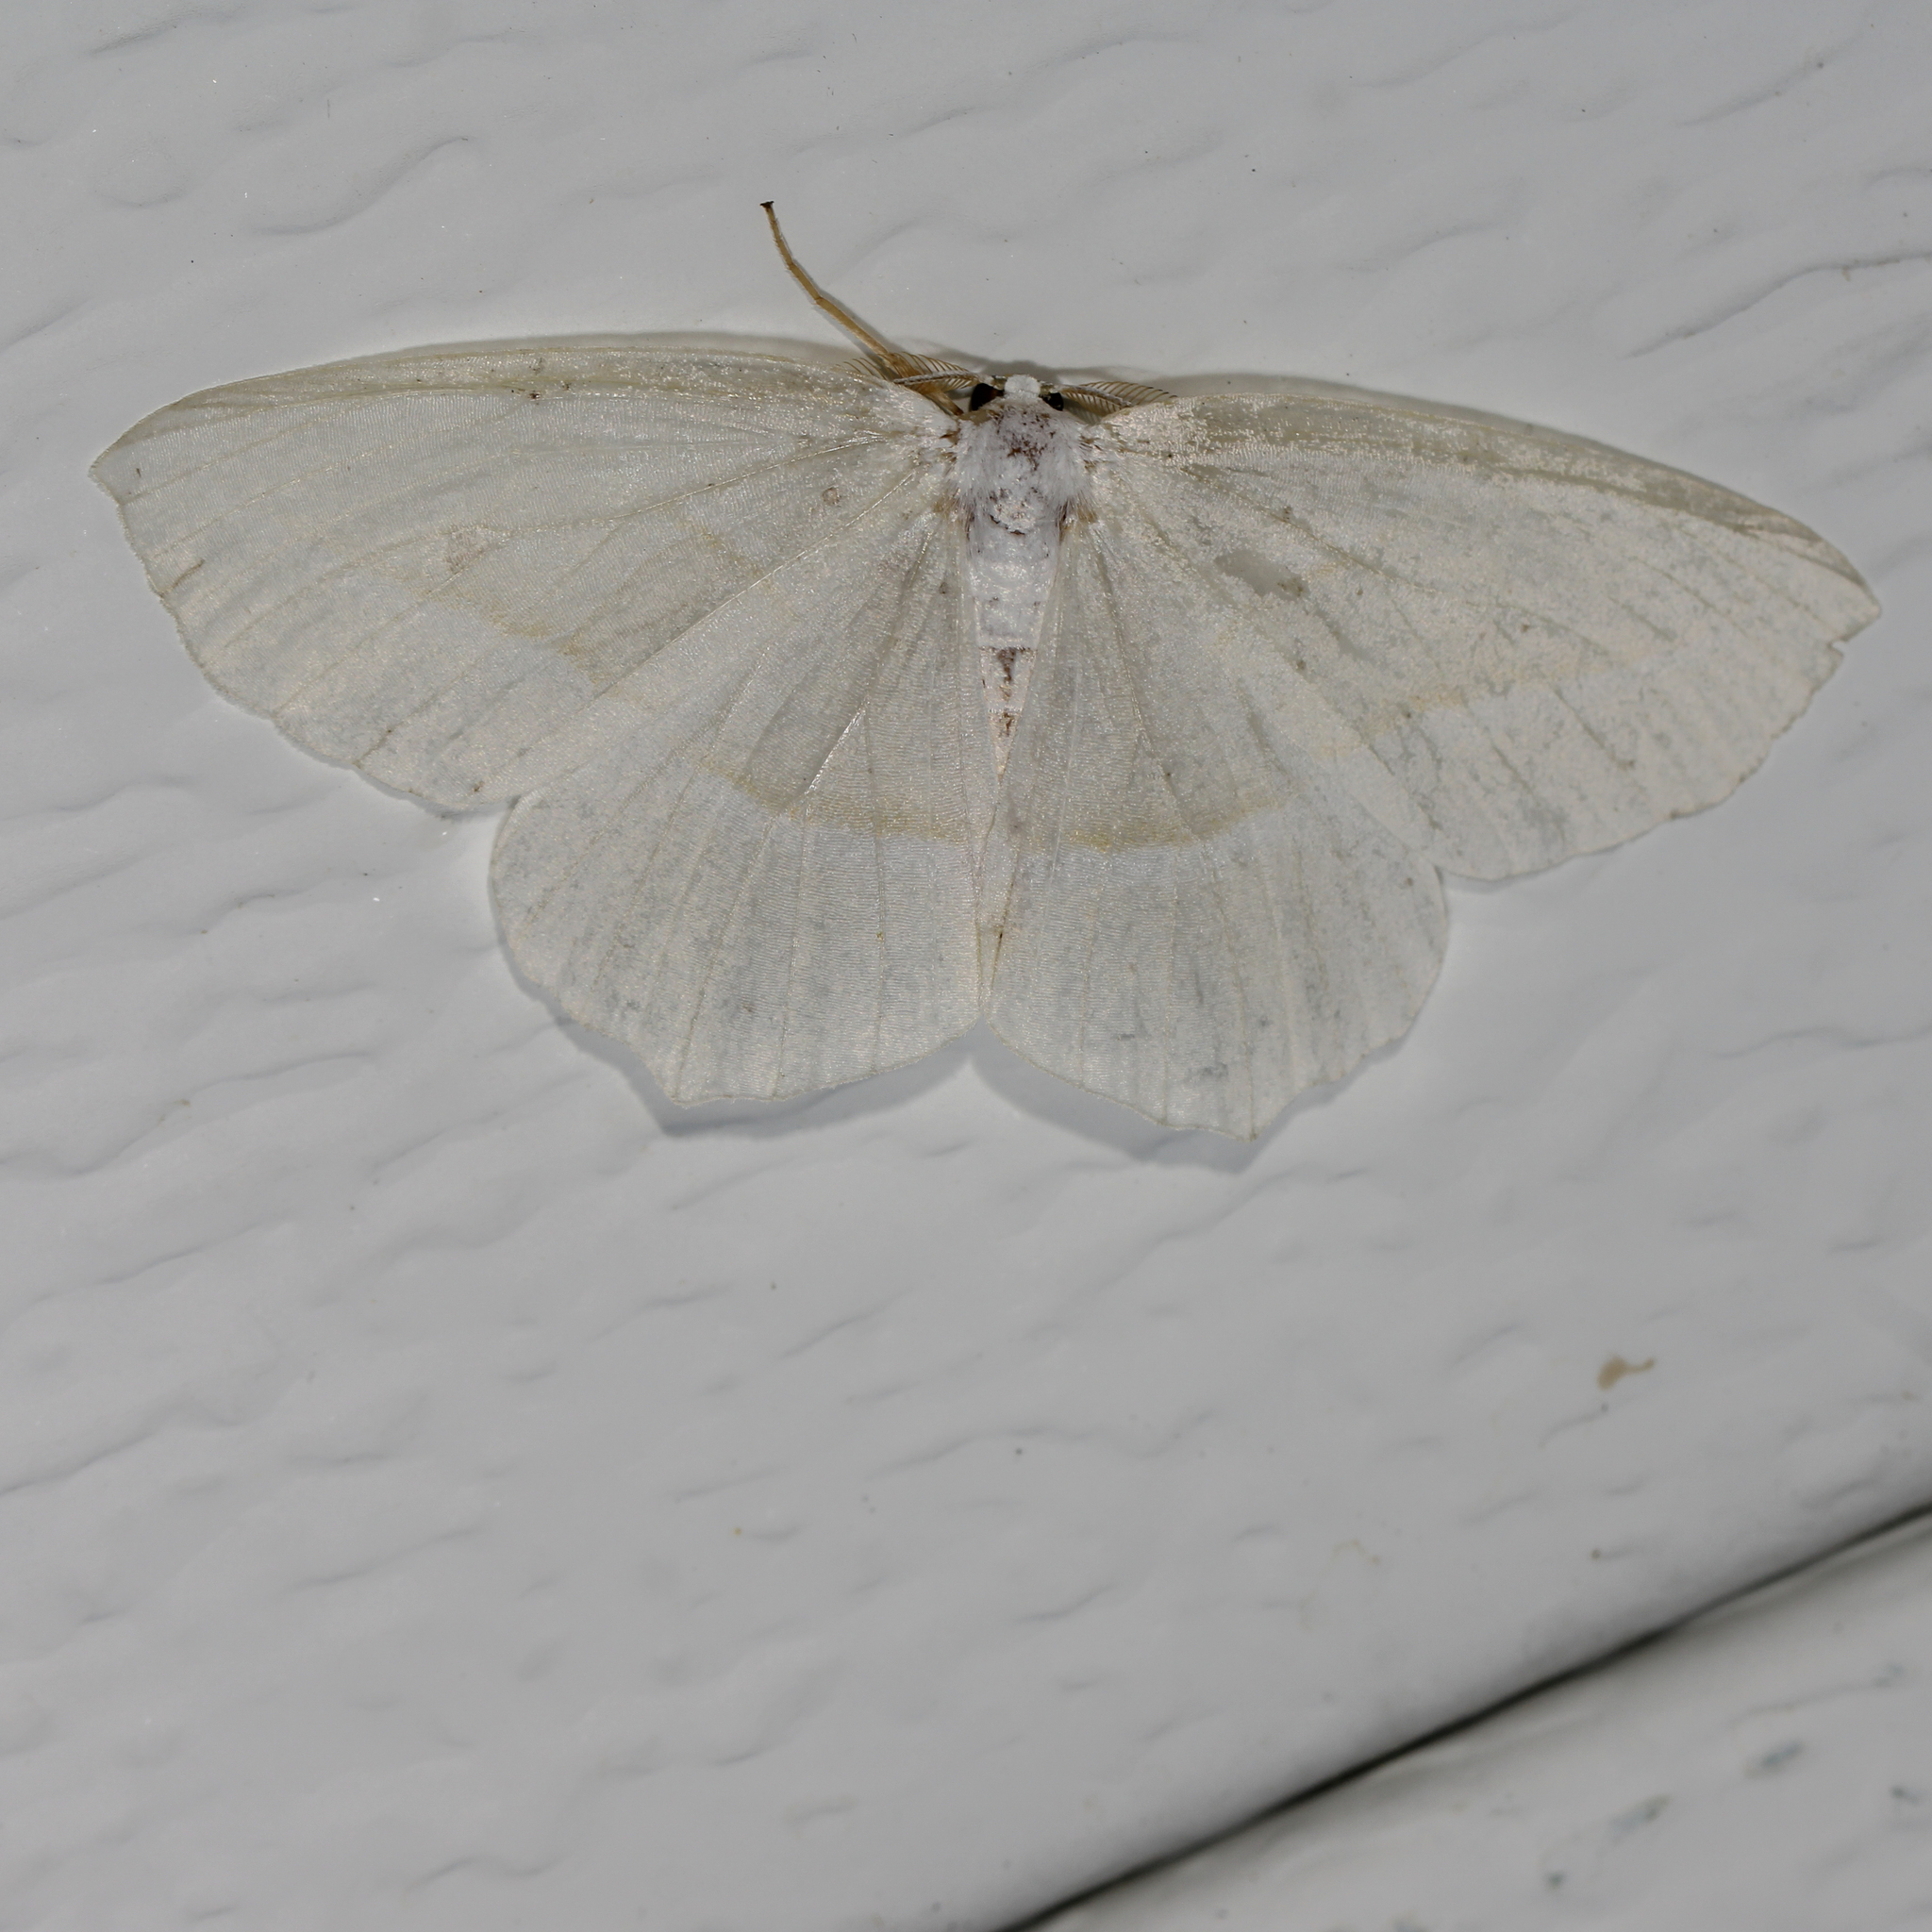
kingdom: Animalia
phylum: Arthropoda
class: Insecta
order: Lepidoptera
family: Geometridae
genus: Campaea
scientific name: Campaea perlata
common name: Fringed looper
